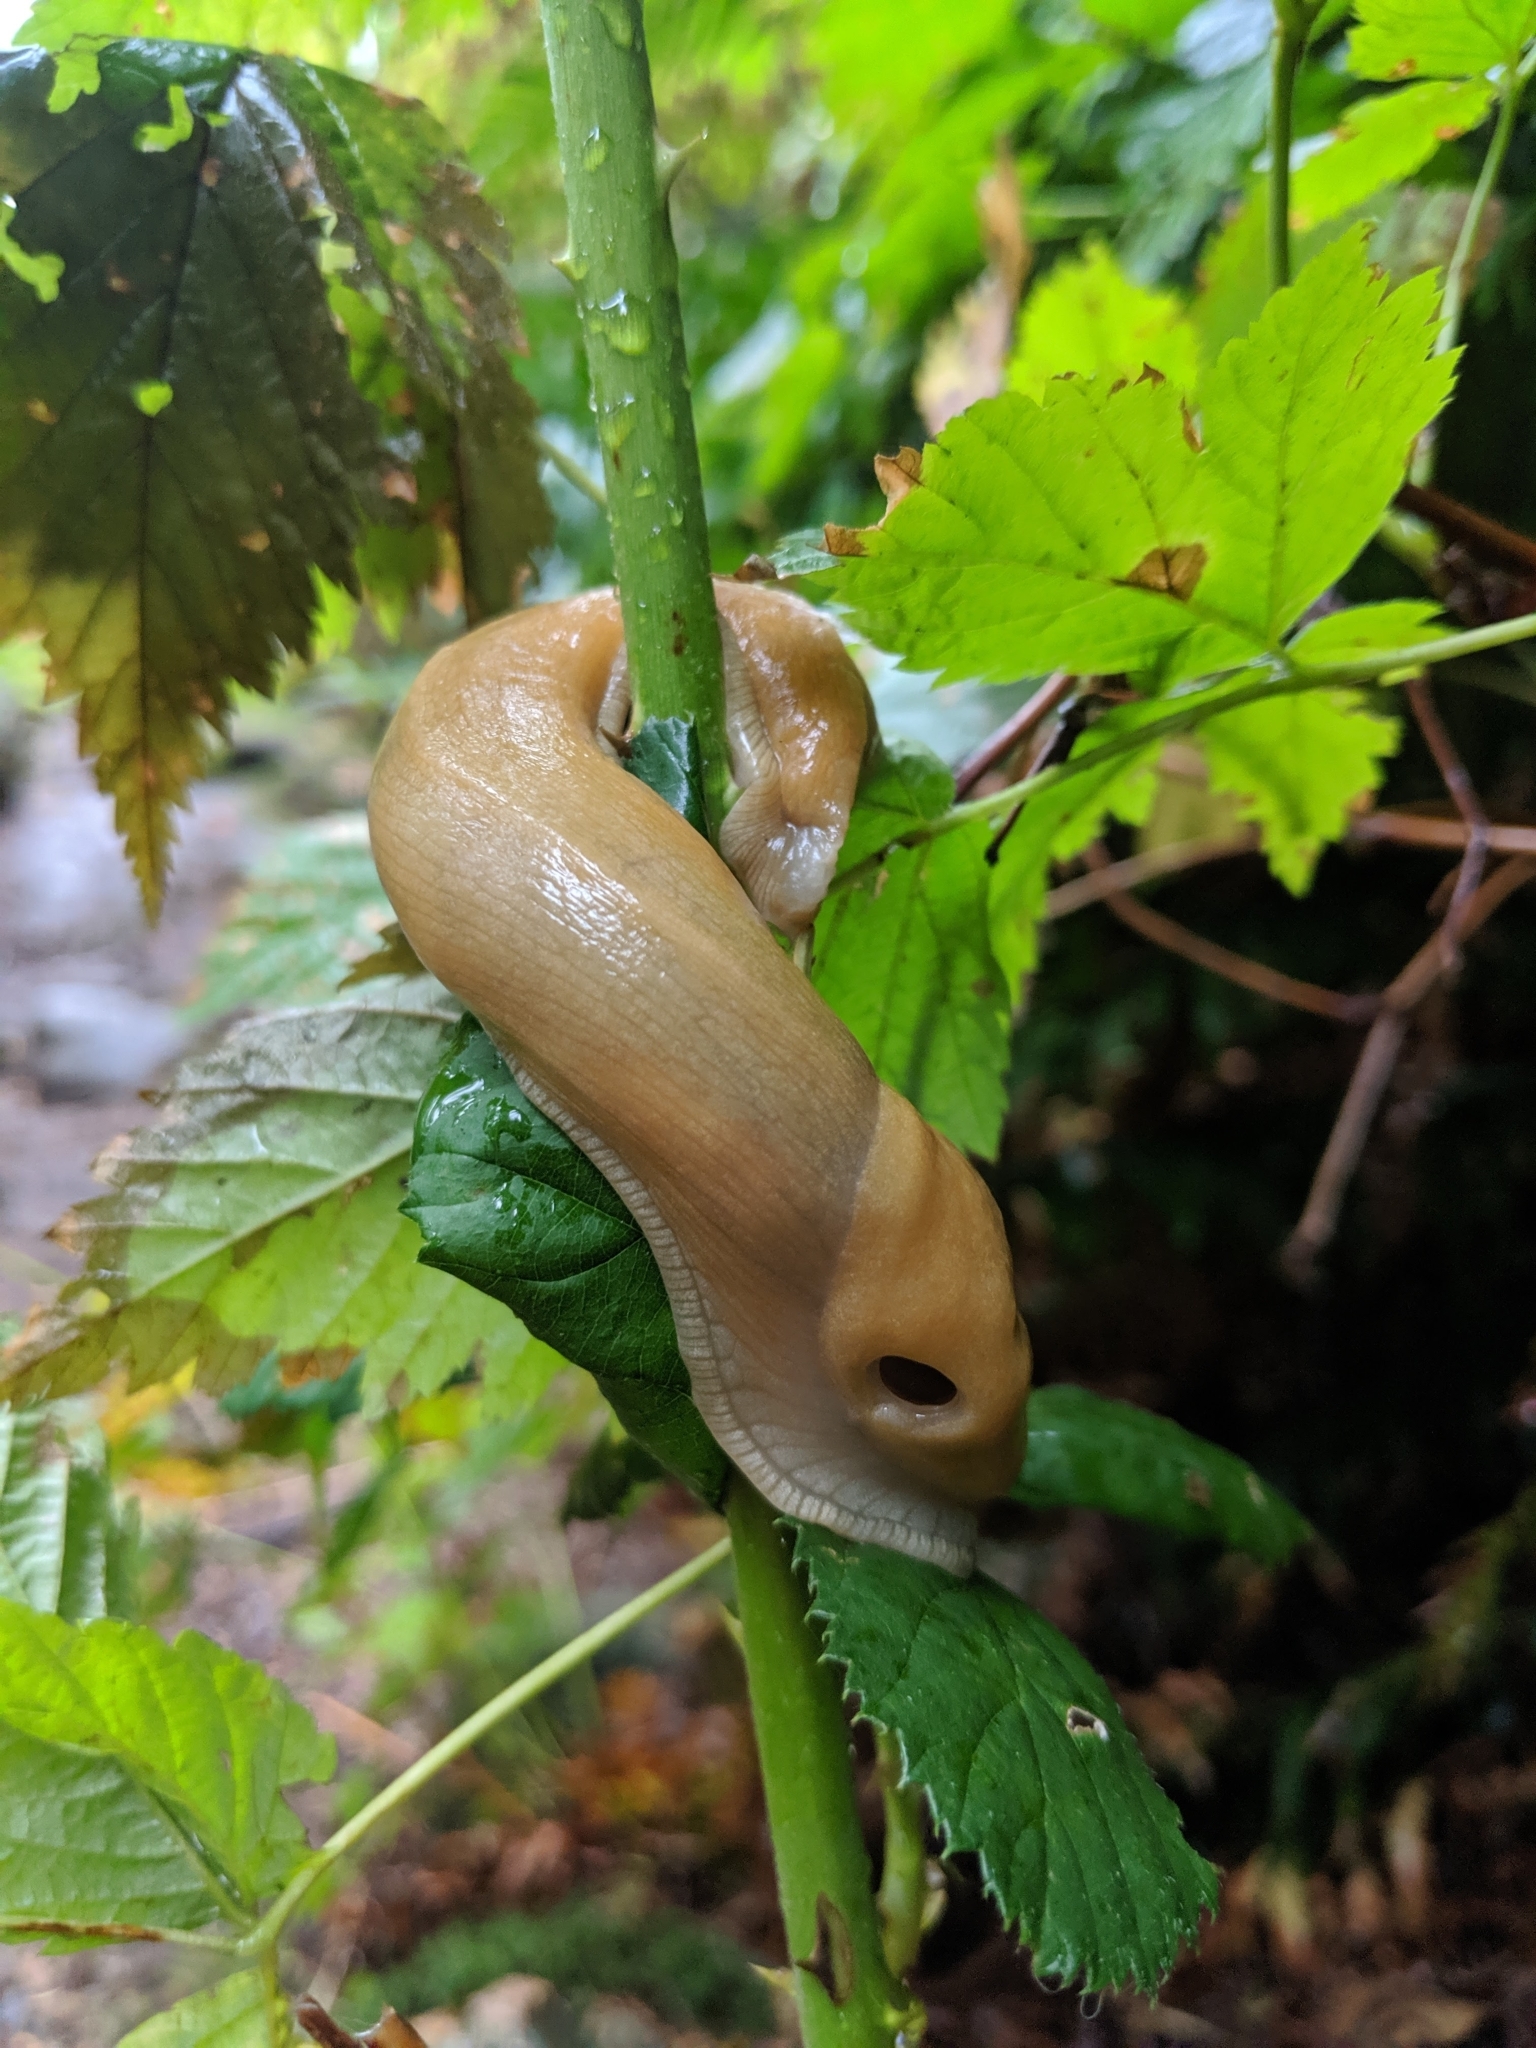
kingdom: Animalia
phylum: Mollusca
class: Gastropoda
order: Stylommatophora
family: Ariolimacidae
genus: Ariolimax
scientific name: Ariolimax columbianus
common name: Pacific banana slug
